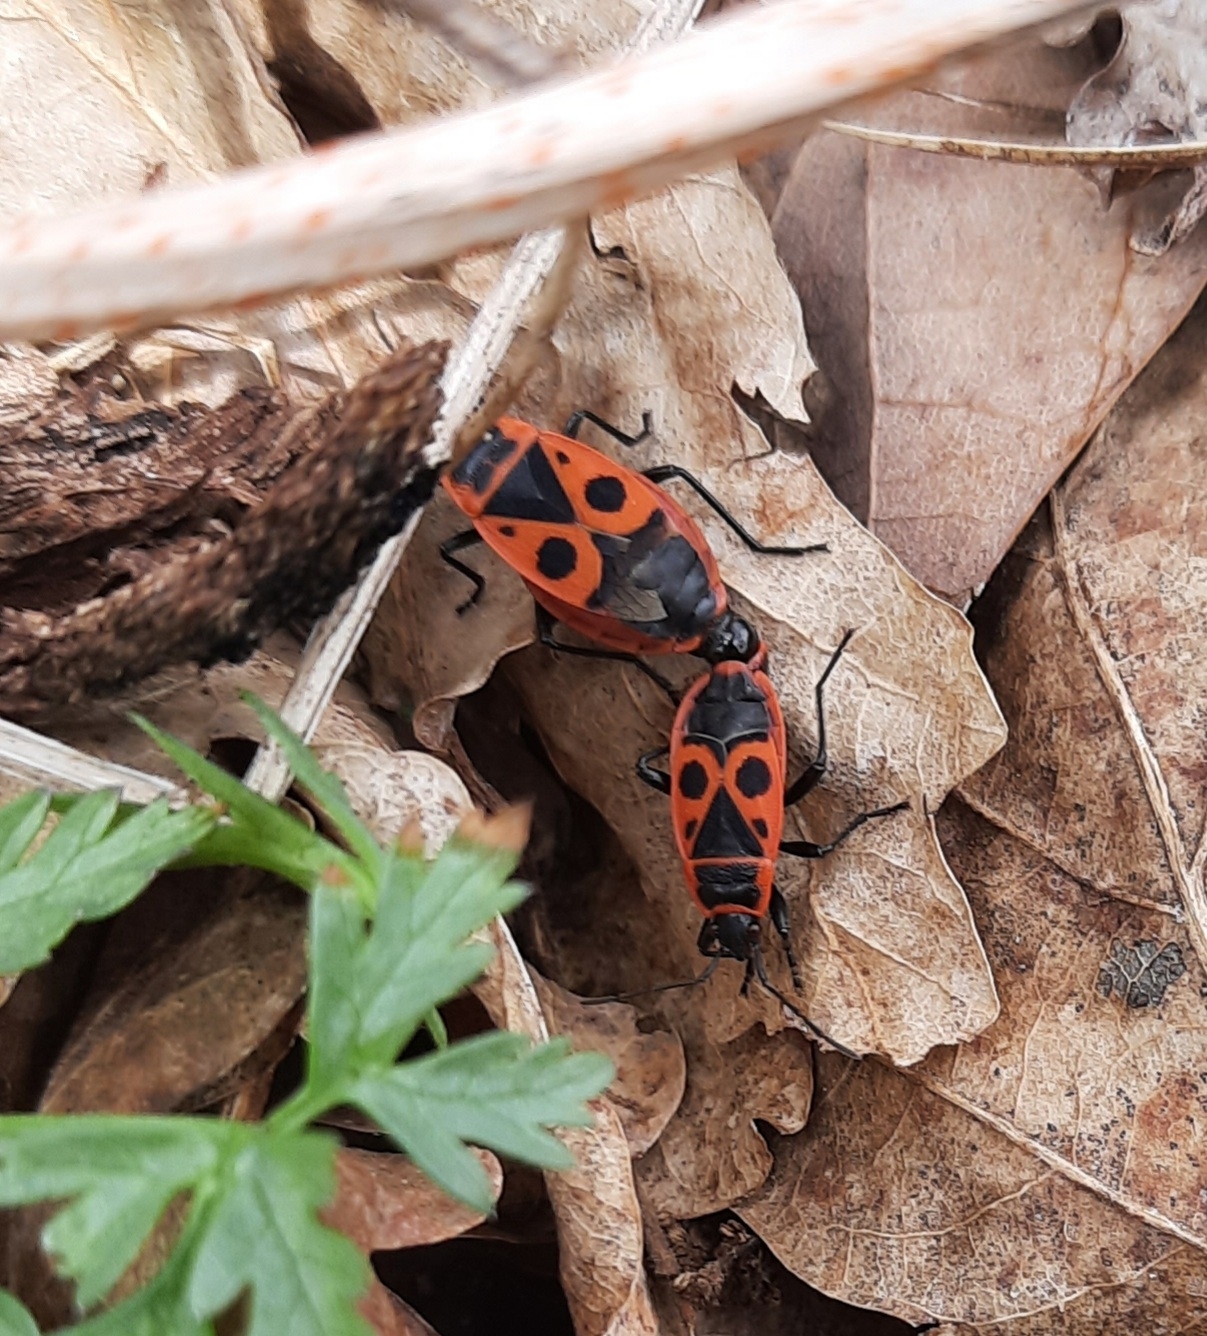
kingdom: Animalia
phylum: Arthropoda
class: Insecta
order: Hemiptera
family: Pyrrhocoridae
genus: Pyrrhocoris
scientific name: Pyrrhocoris apterus
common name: Firebug
